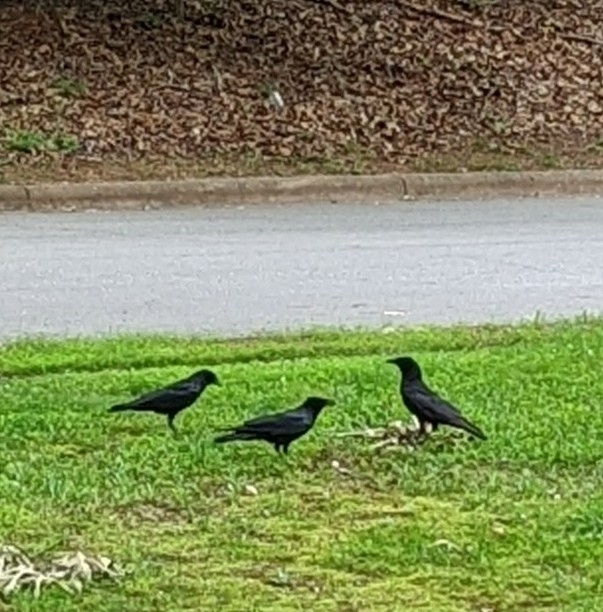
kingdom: Animalia
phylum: Chordata
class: Aves
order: Passeriformes
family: Corvidae
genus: Corvus
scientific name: Corvus brachyrhynchos
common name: American crow
